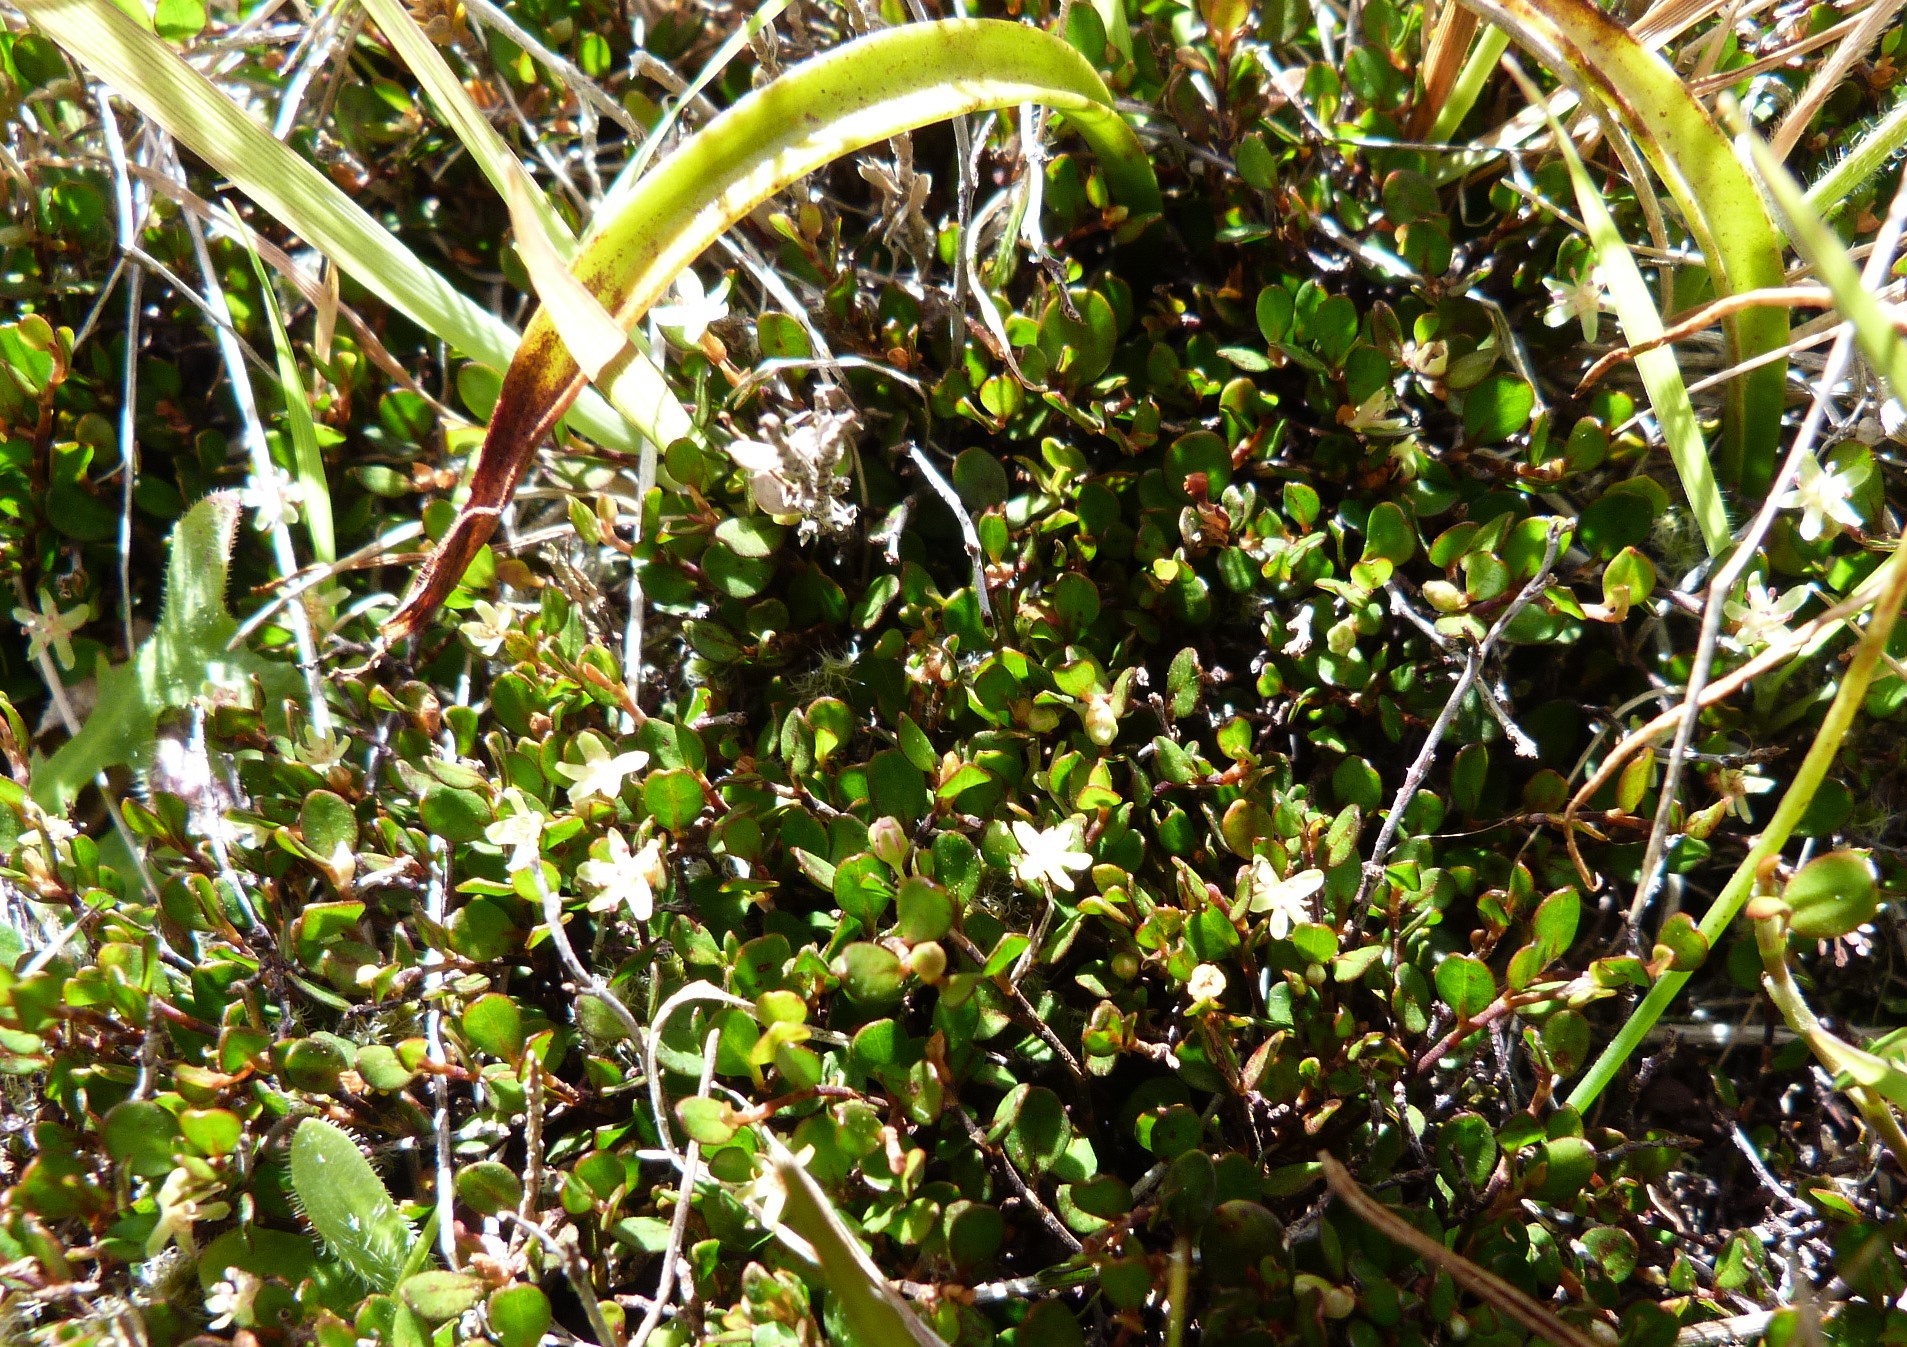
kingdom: Plantae
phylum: Tracheophyta
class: Magnoliopsida
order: Caryophyllales
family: Polygonaceae
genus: Muehlenbeckia
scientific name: Muehlenbeckia axillaris
